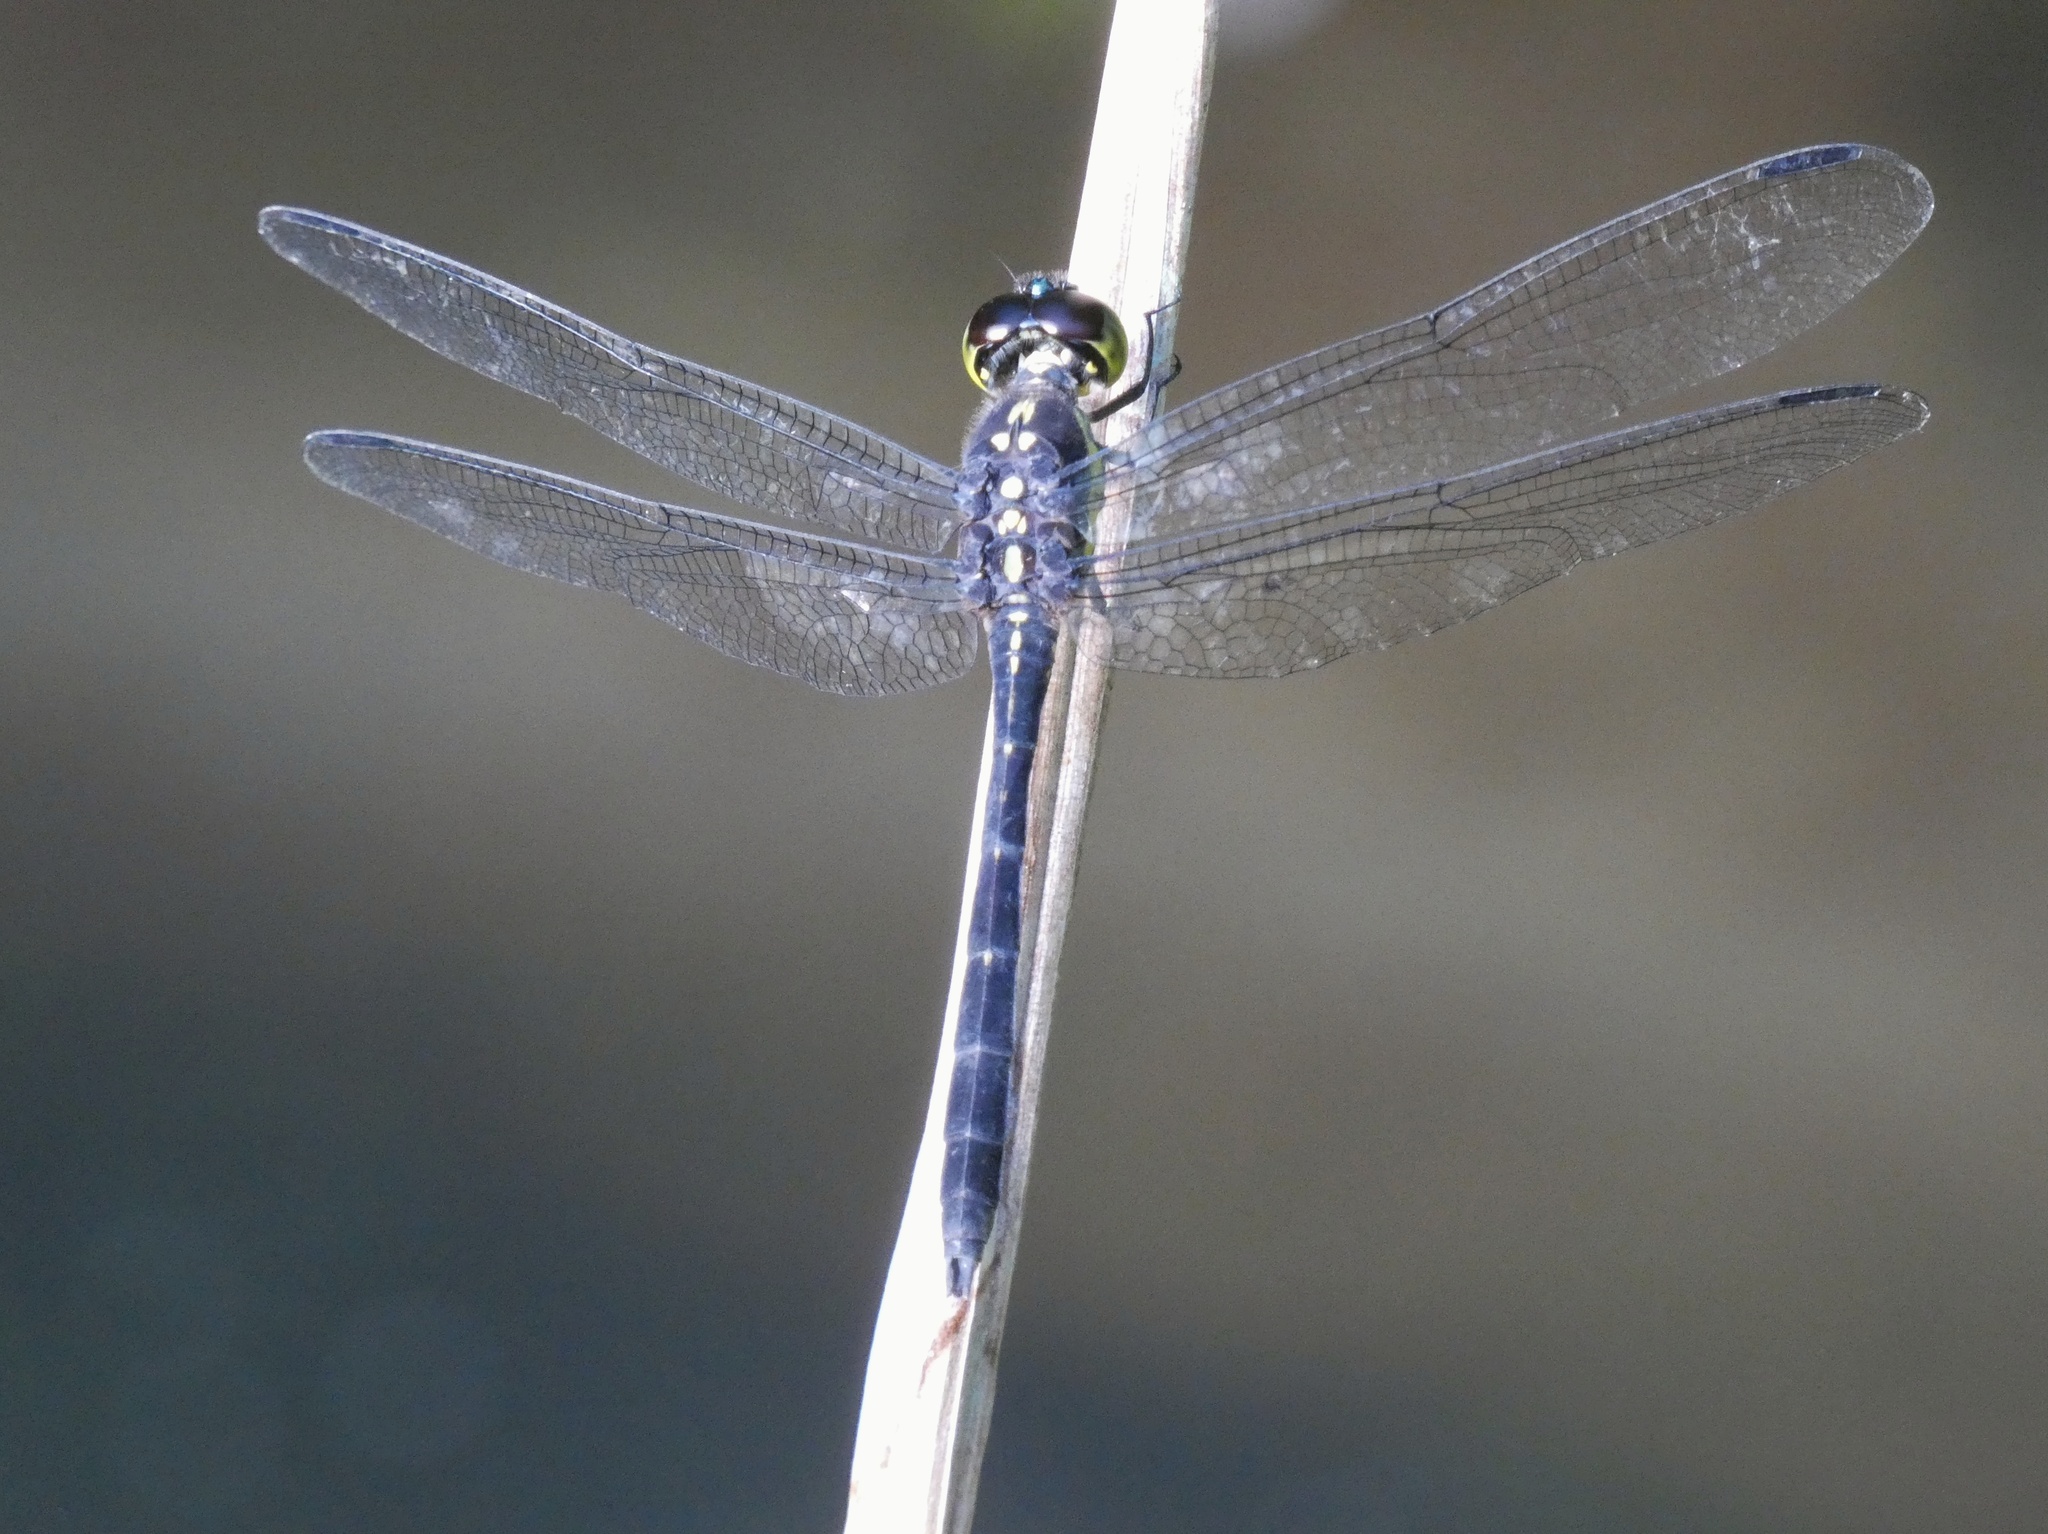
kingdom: Animalia
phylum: Arthropoda
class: Insecta
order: Odonata
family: Libellulidae
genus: Agrionoptera
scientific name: Agrionoptera longitudinalis
